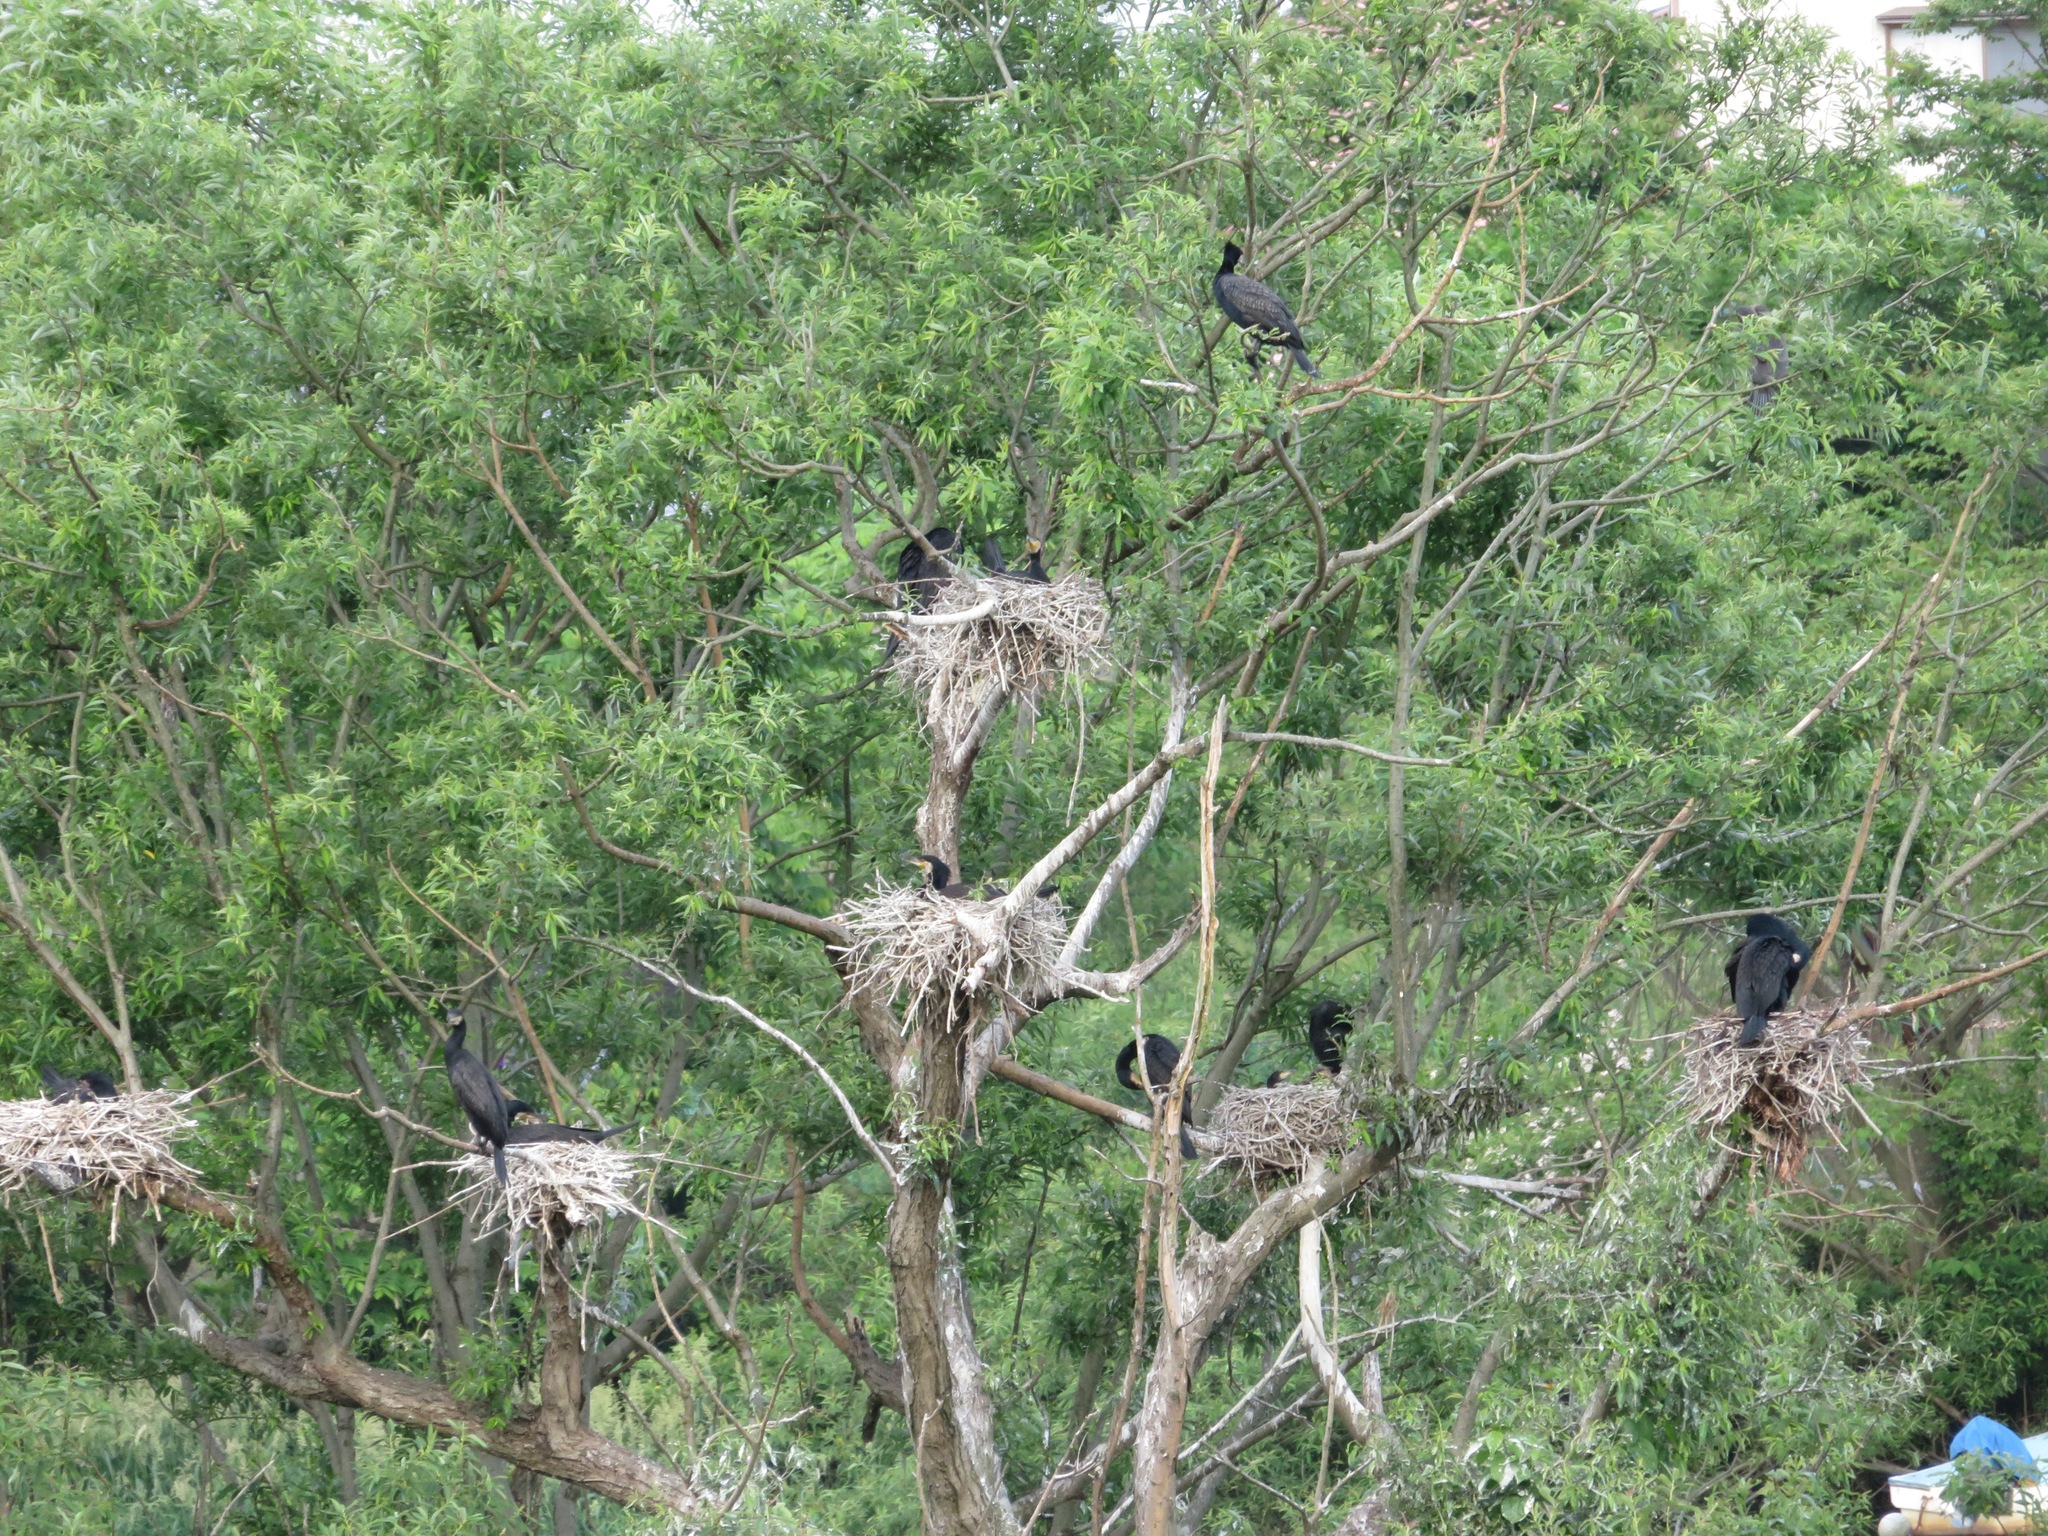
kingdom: Animalia
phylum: Chordata
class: Aves
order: Suliformes
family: Phalacrocoracidae
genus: Phalacrocorax
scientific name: Phalacrocorax carbo
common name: Great cormorant
